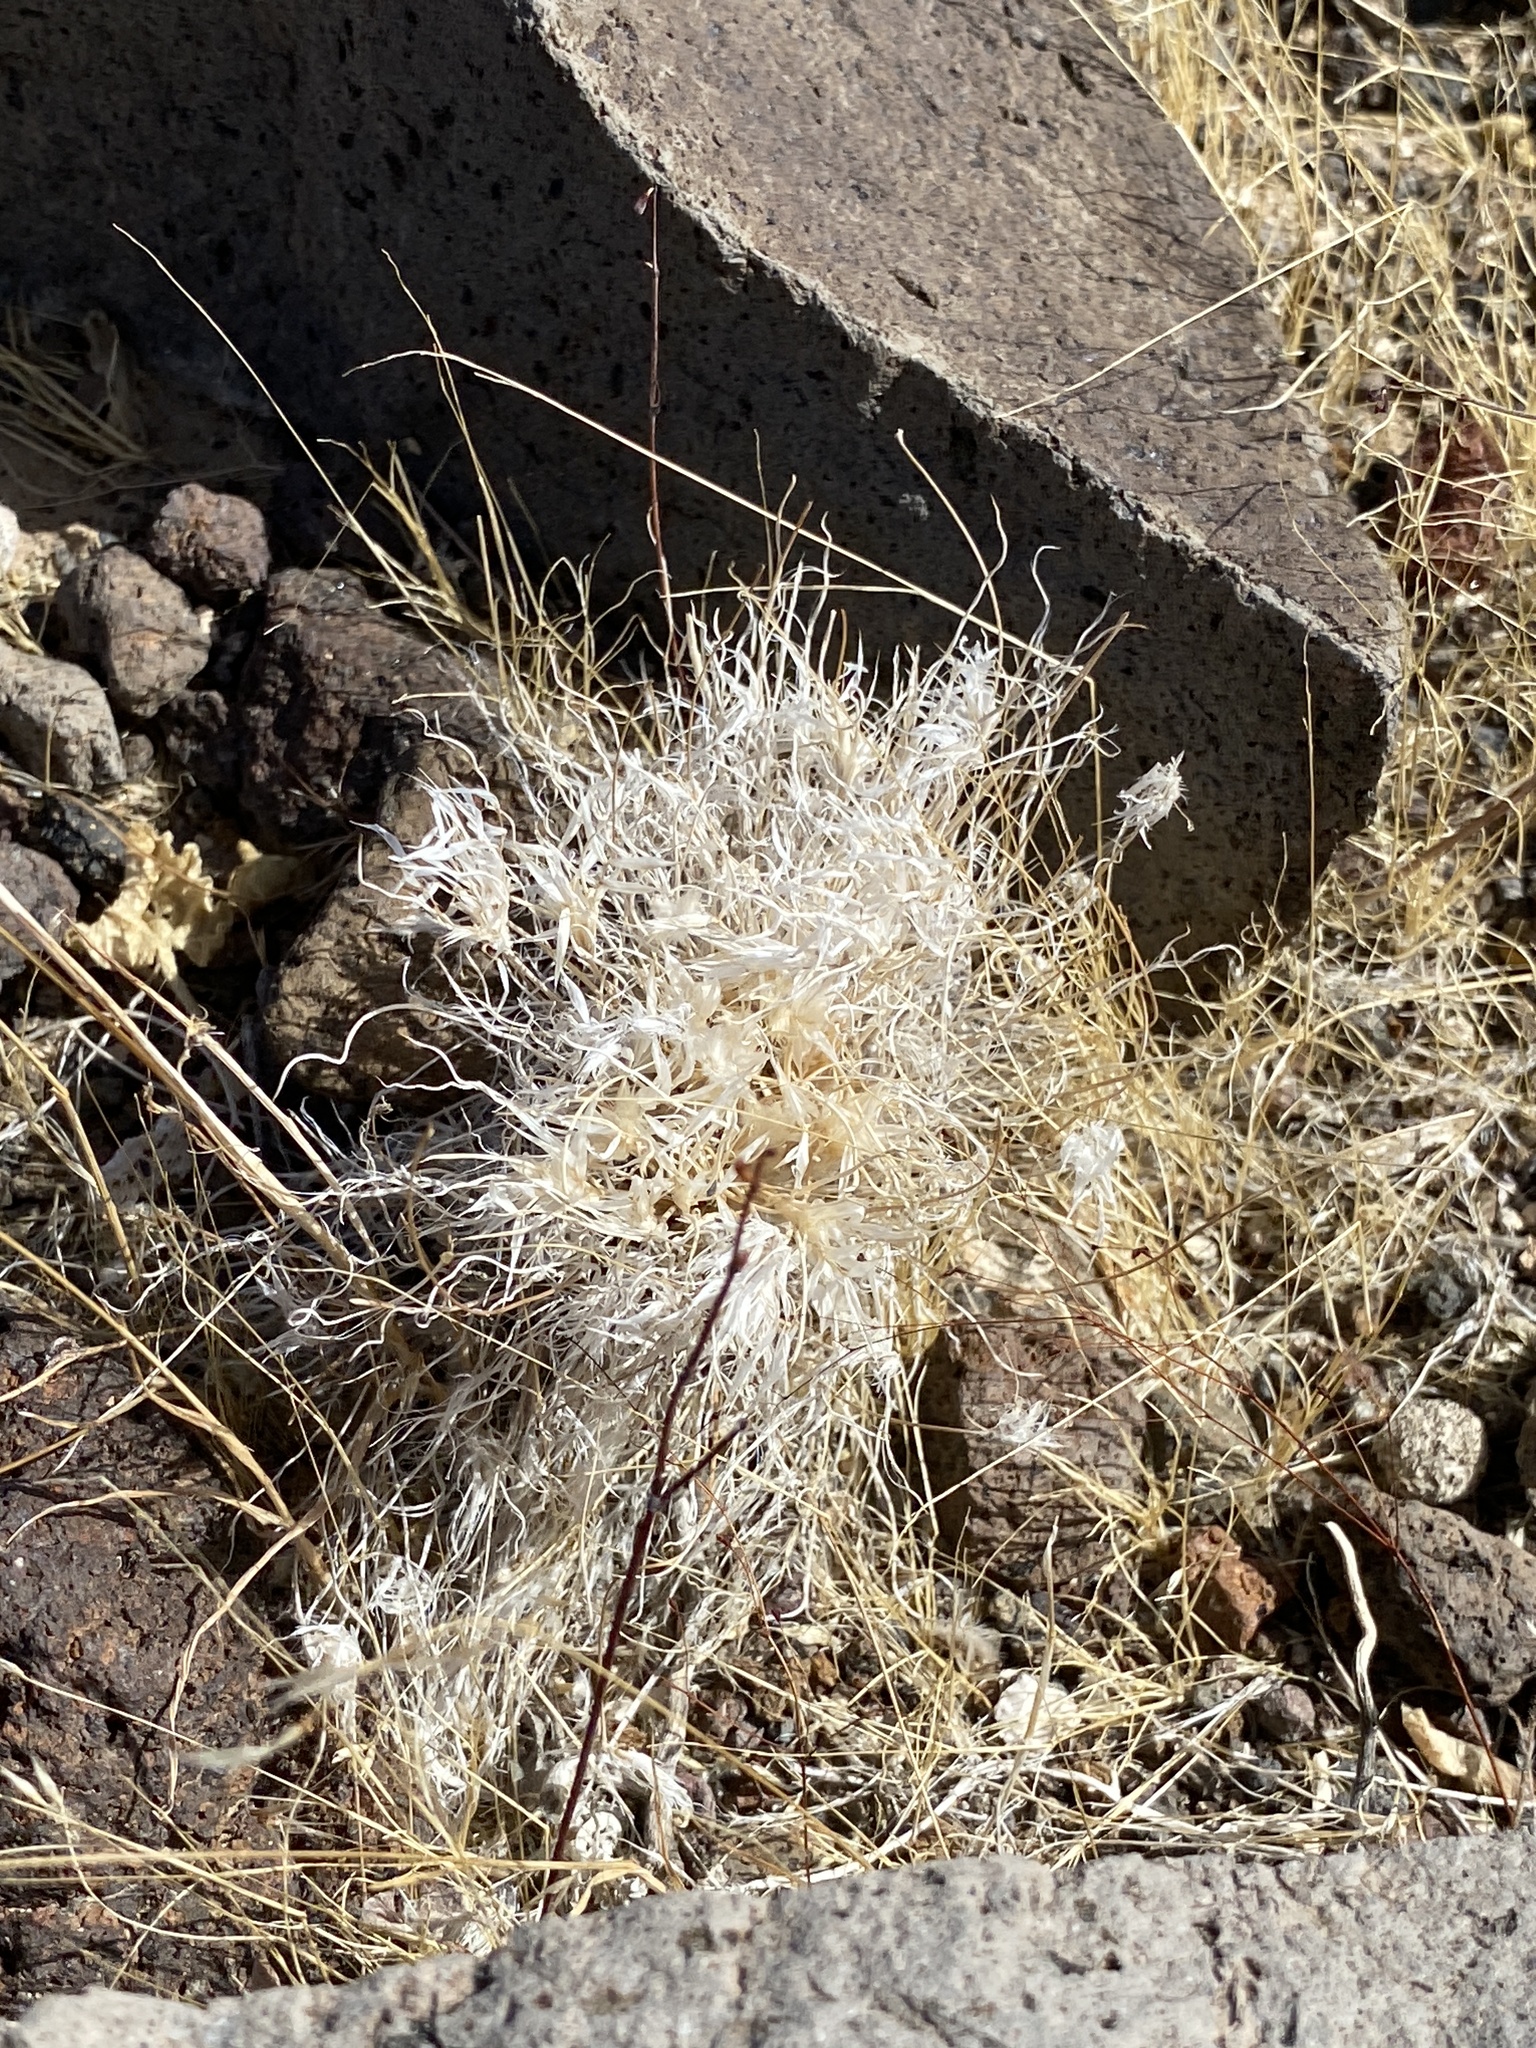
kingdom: Plantae
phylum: Tracheophyta
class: Liliopsida
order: Poales
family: Poaceae
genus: Dasyochloa
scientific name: Dasyochloa pulchella
